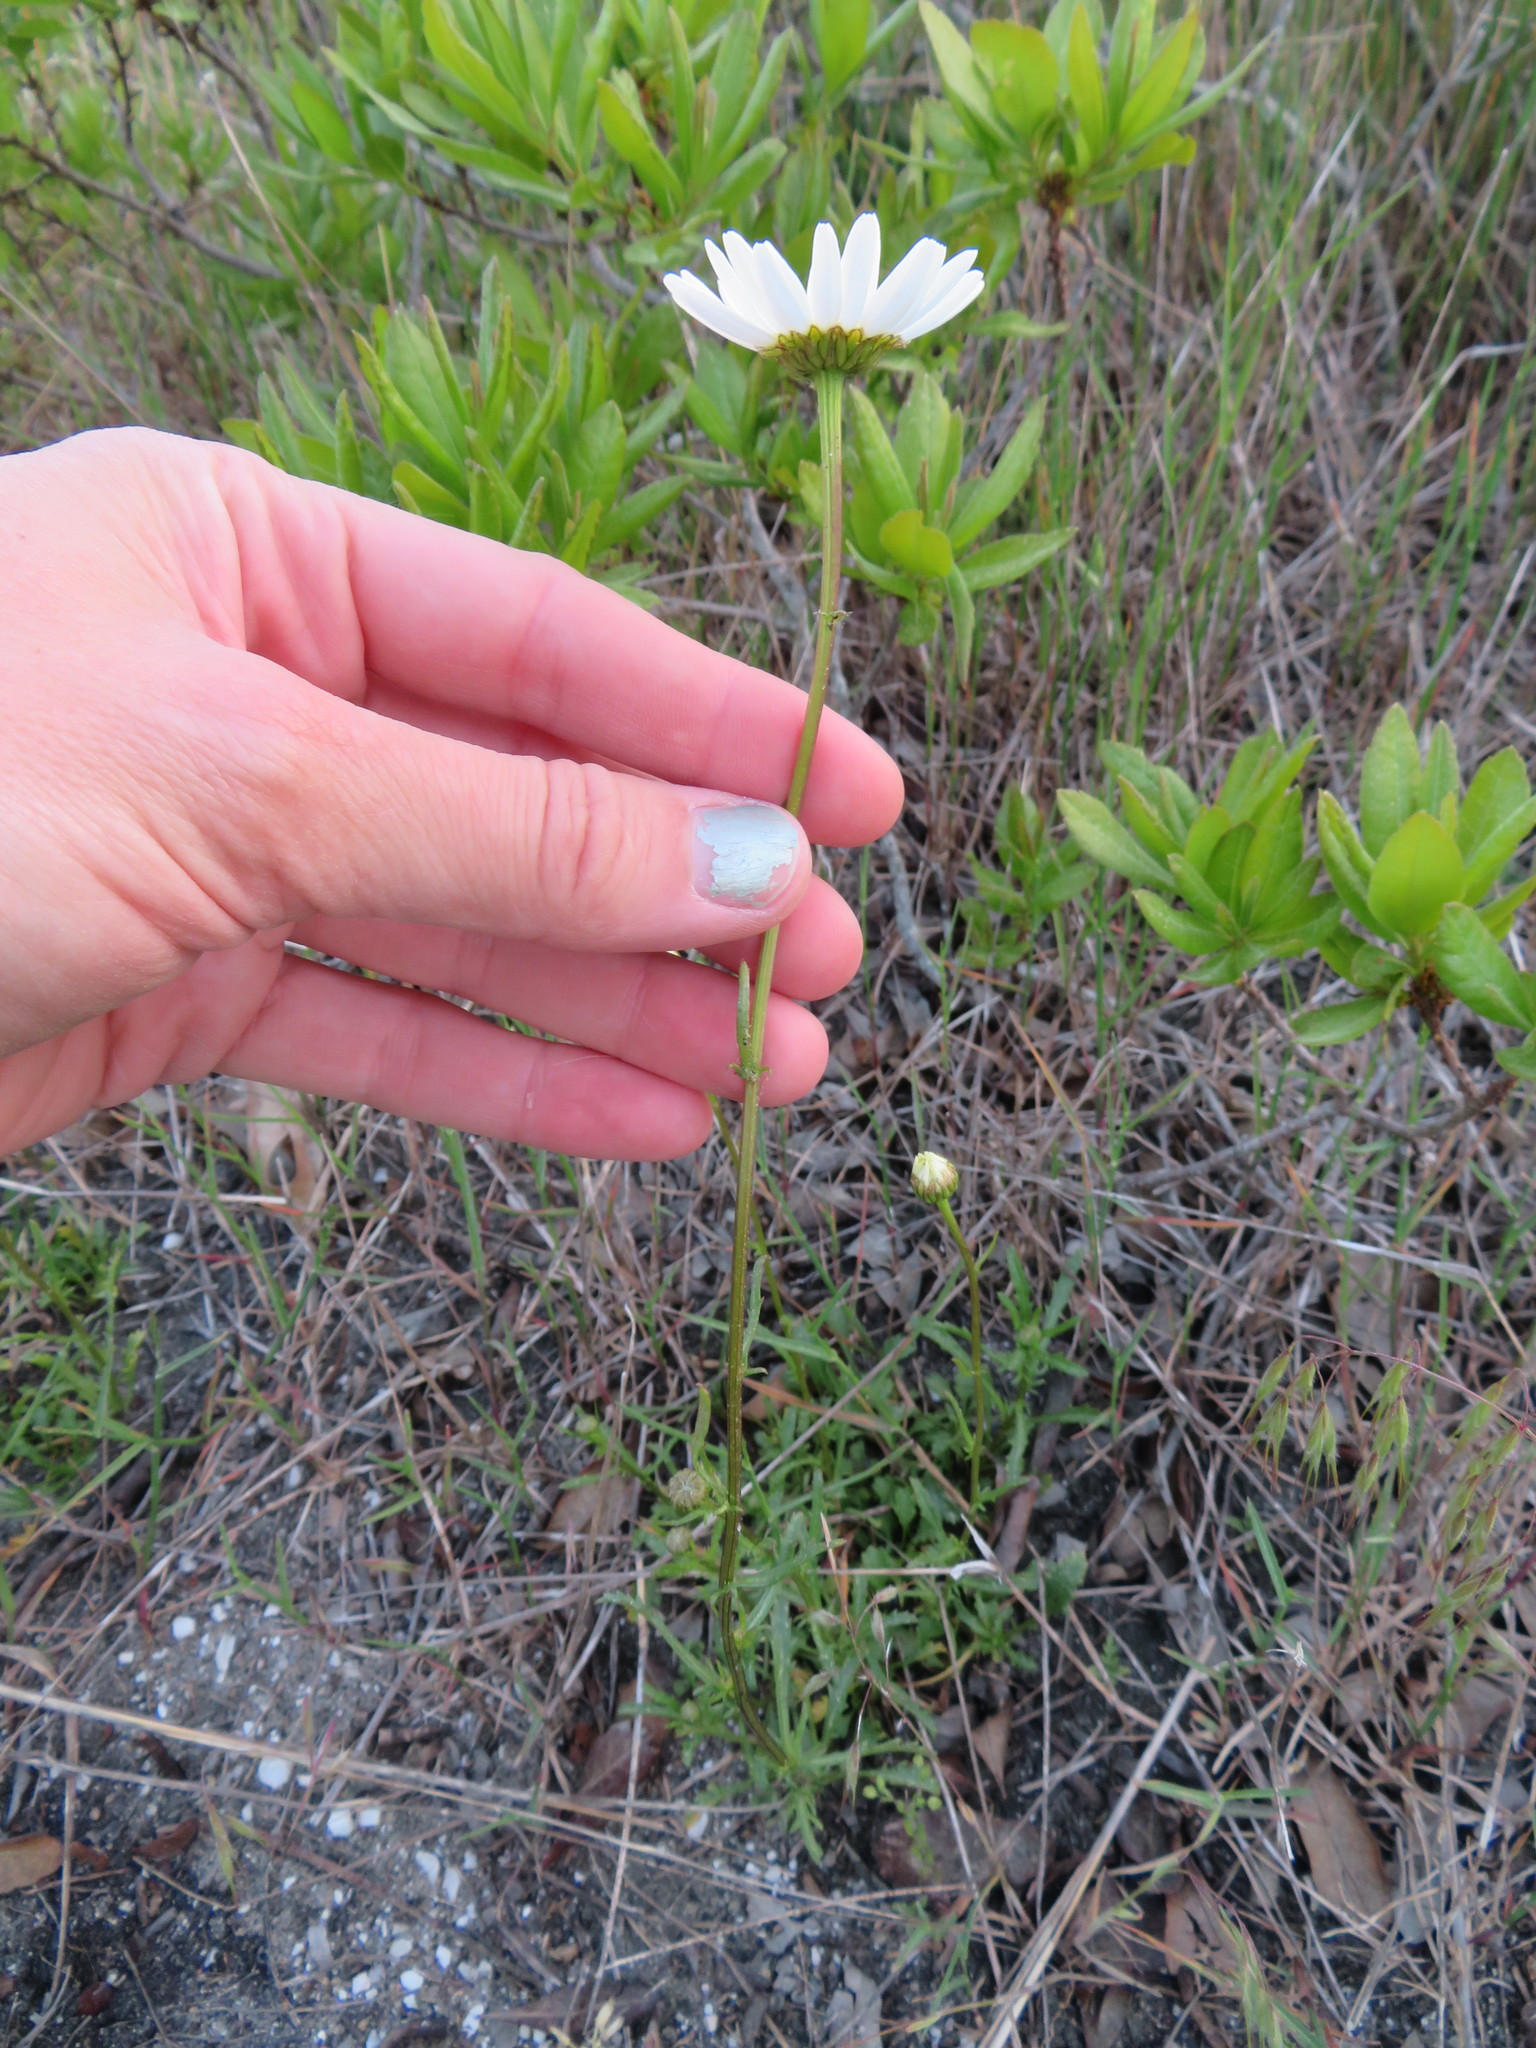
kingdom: Plantae
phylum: Tracheophyta
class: Magnoliopsida
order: Asterales
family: Asteraceae
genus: Leucanthemum
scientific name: Leucanthemum vulgare
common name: Oxeye daisy
